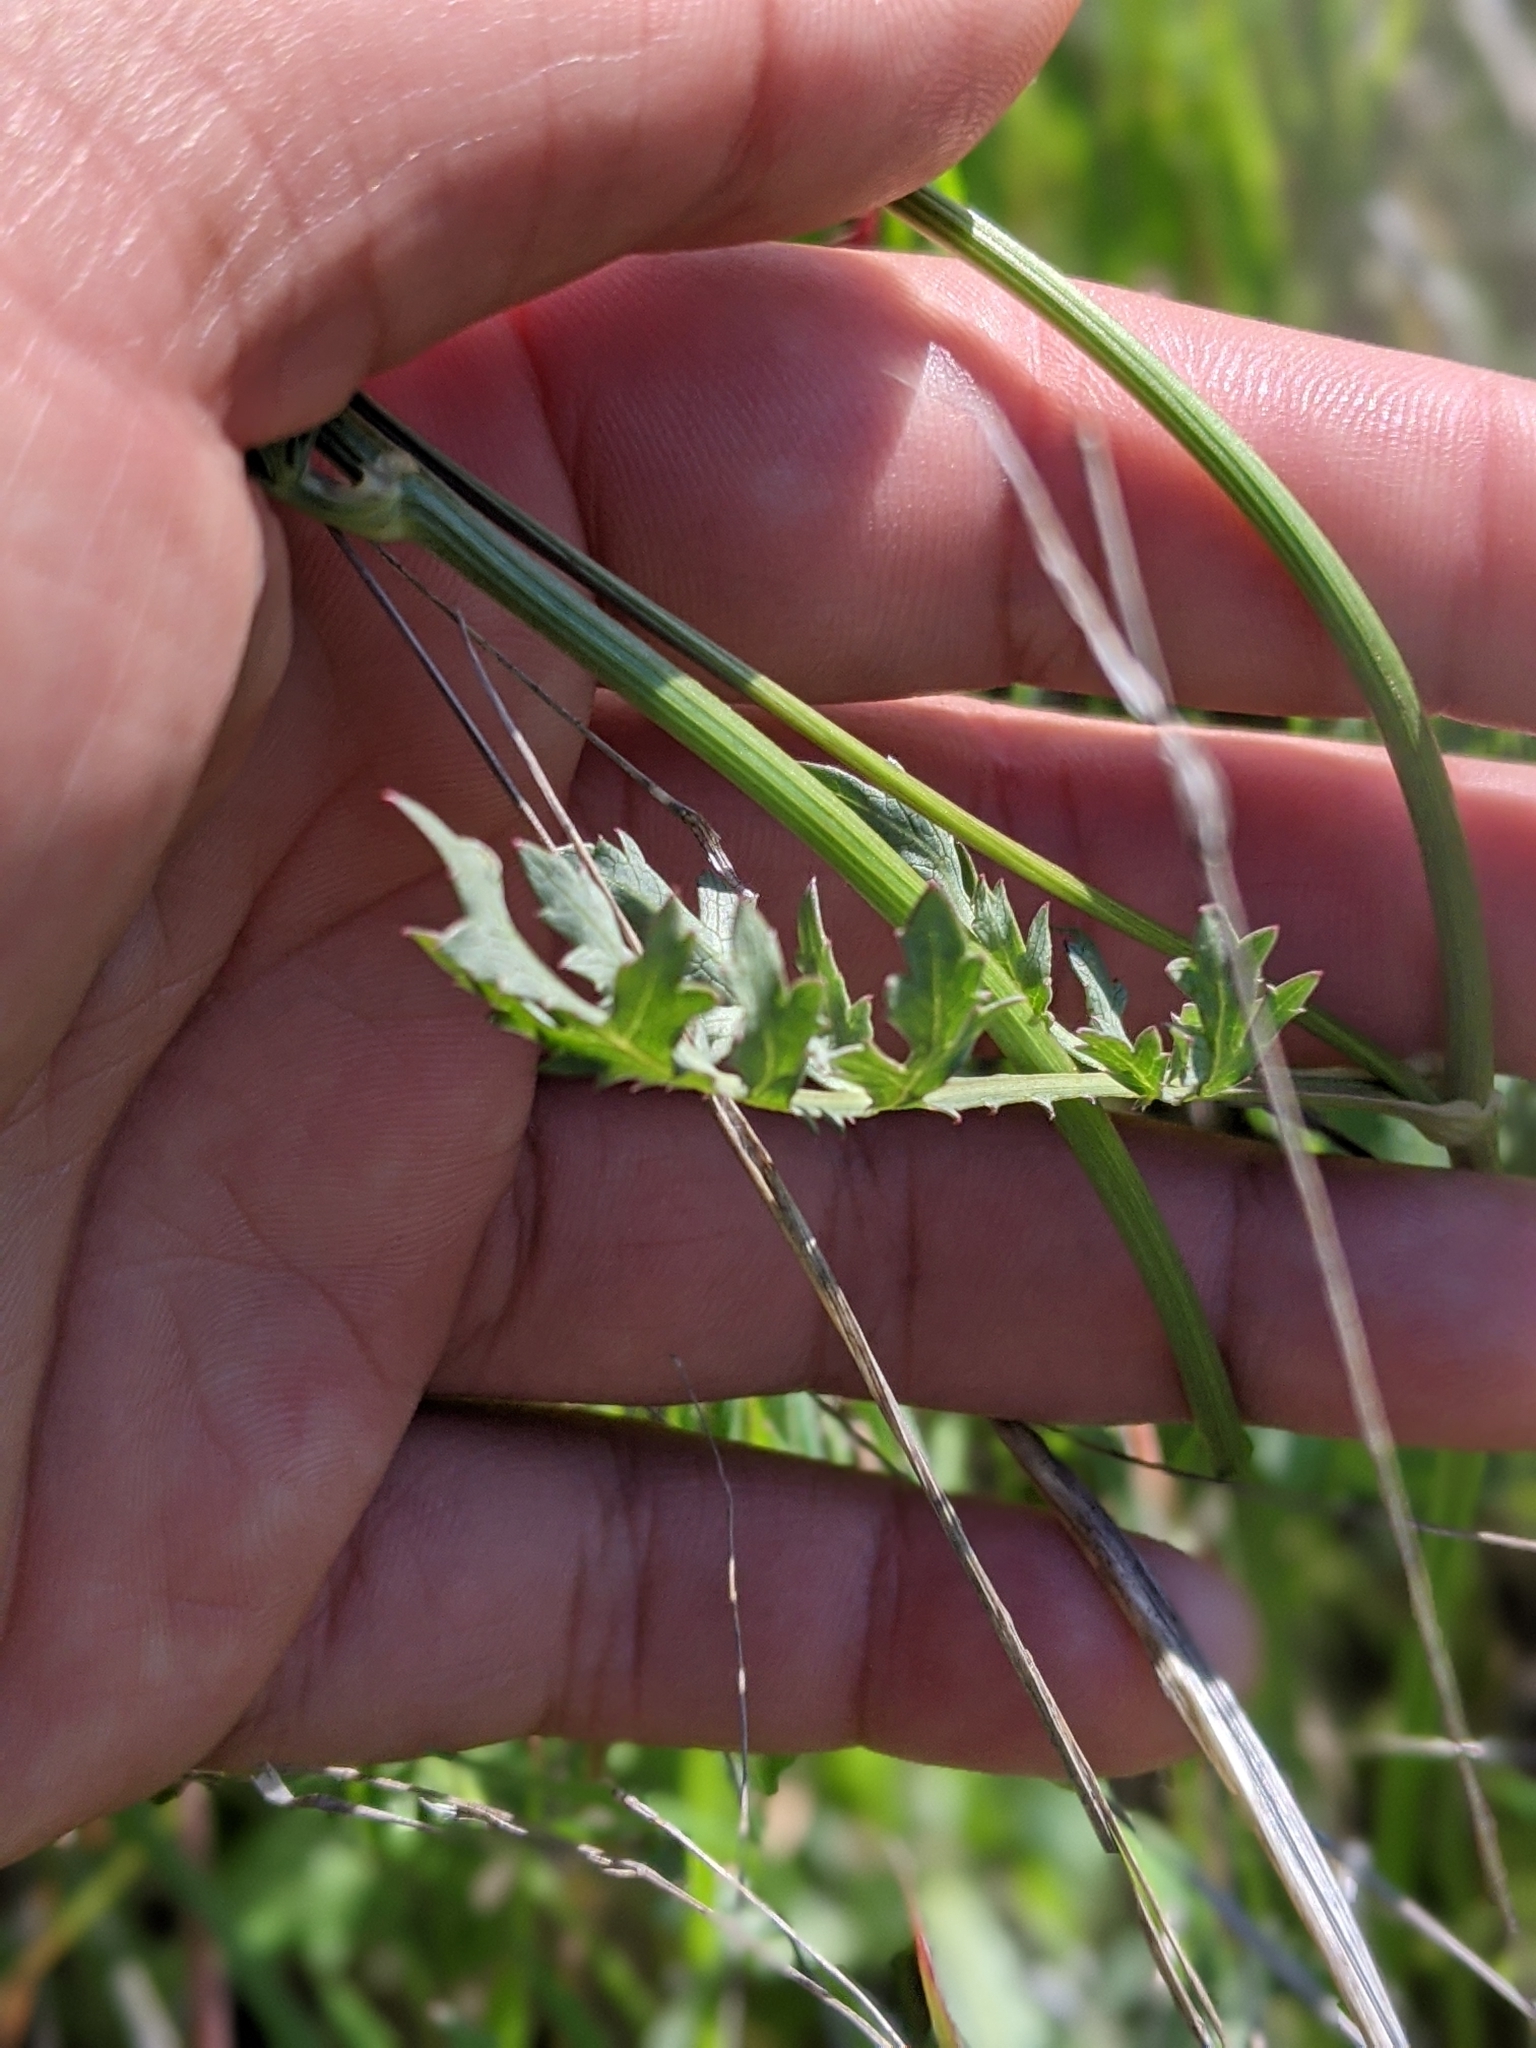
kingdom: Plantae
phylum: Tracheophyta
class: Magnoliopsida
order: Apiales
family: Apiaceae
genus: Sanicula
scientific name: Sanicula bipinnatifida
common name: Shoe-buttons
